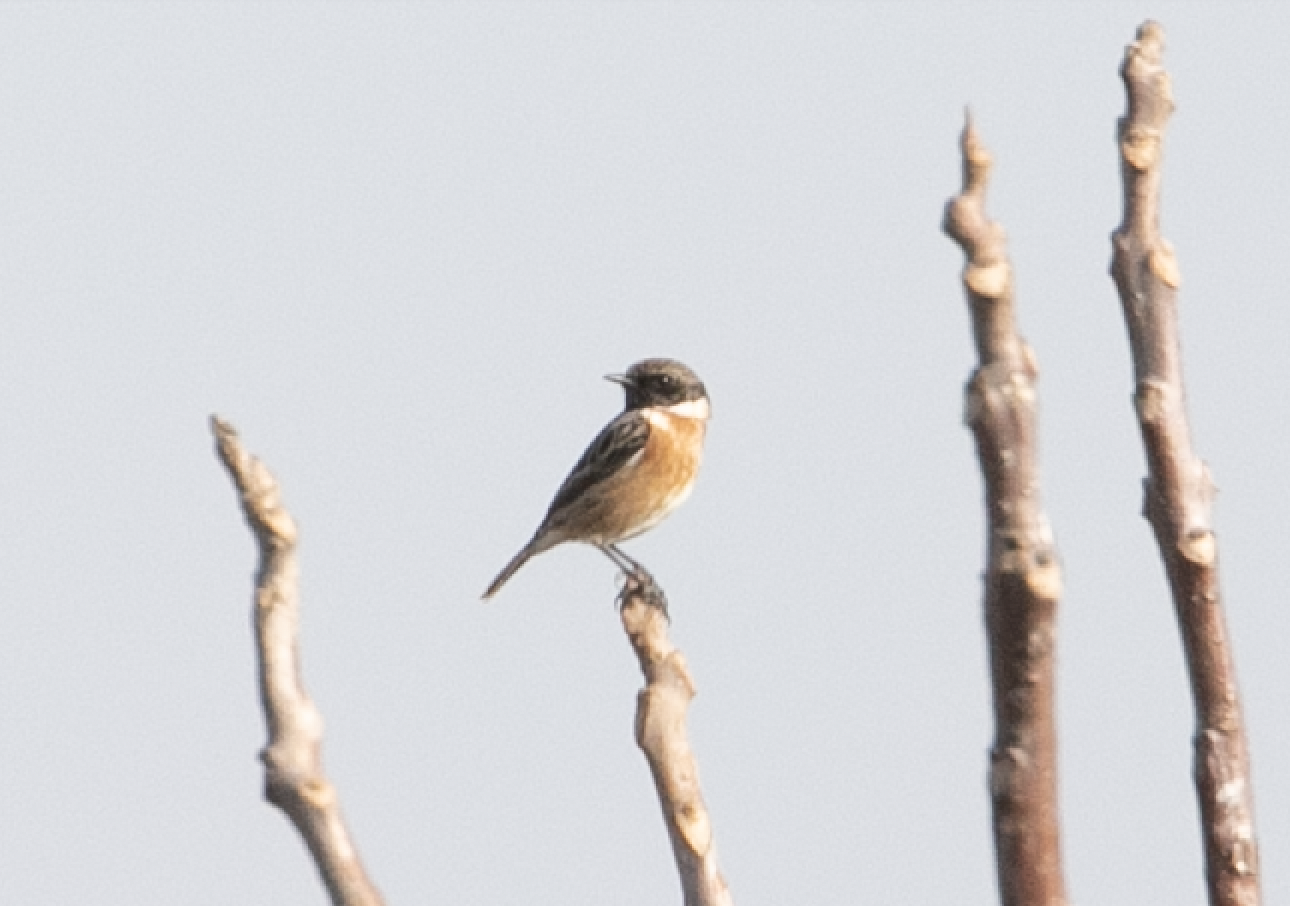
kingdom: Animalia
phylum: Chordata
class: Aves
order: Passeriformes
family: Muscicapidae
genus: Saxicola
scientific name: Saxicola rubicola
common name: European stonechat
